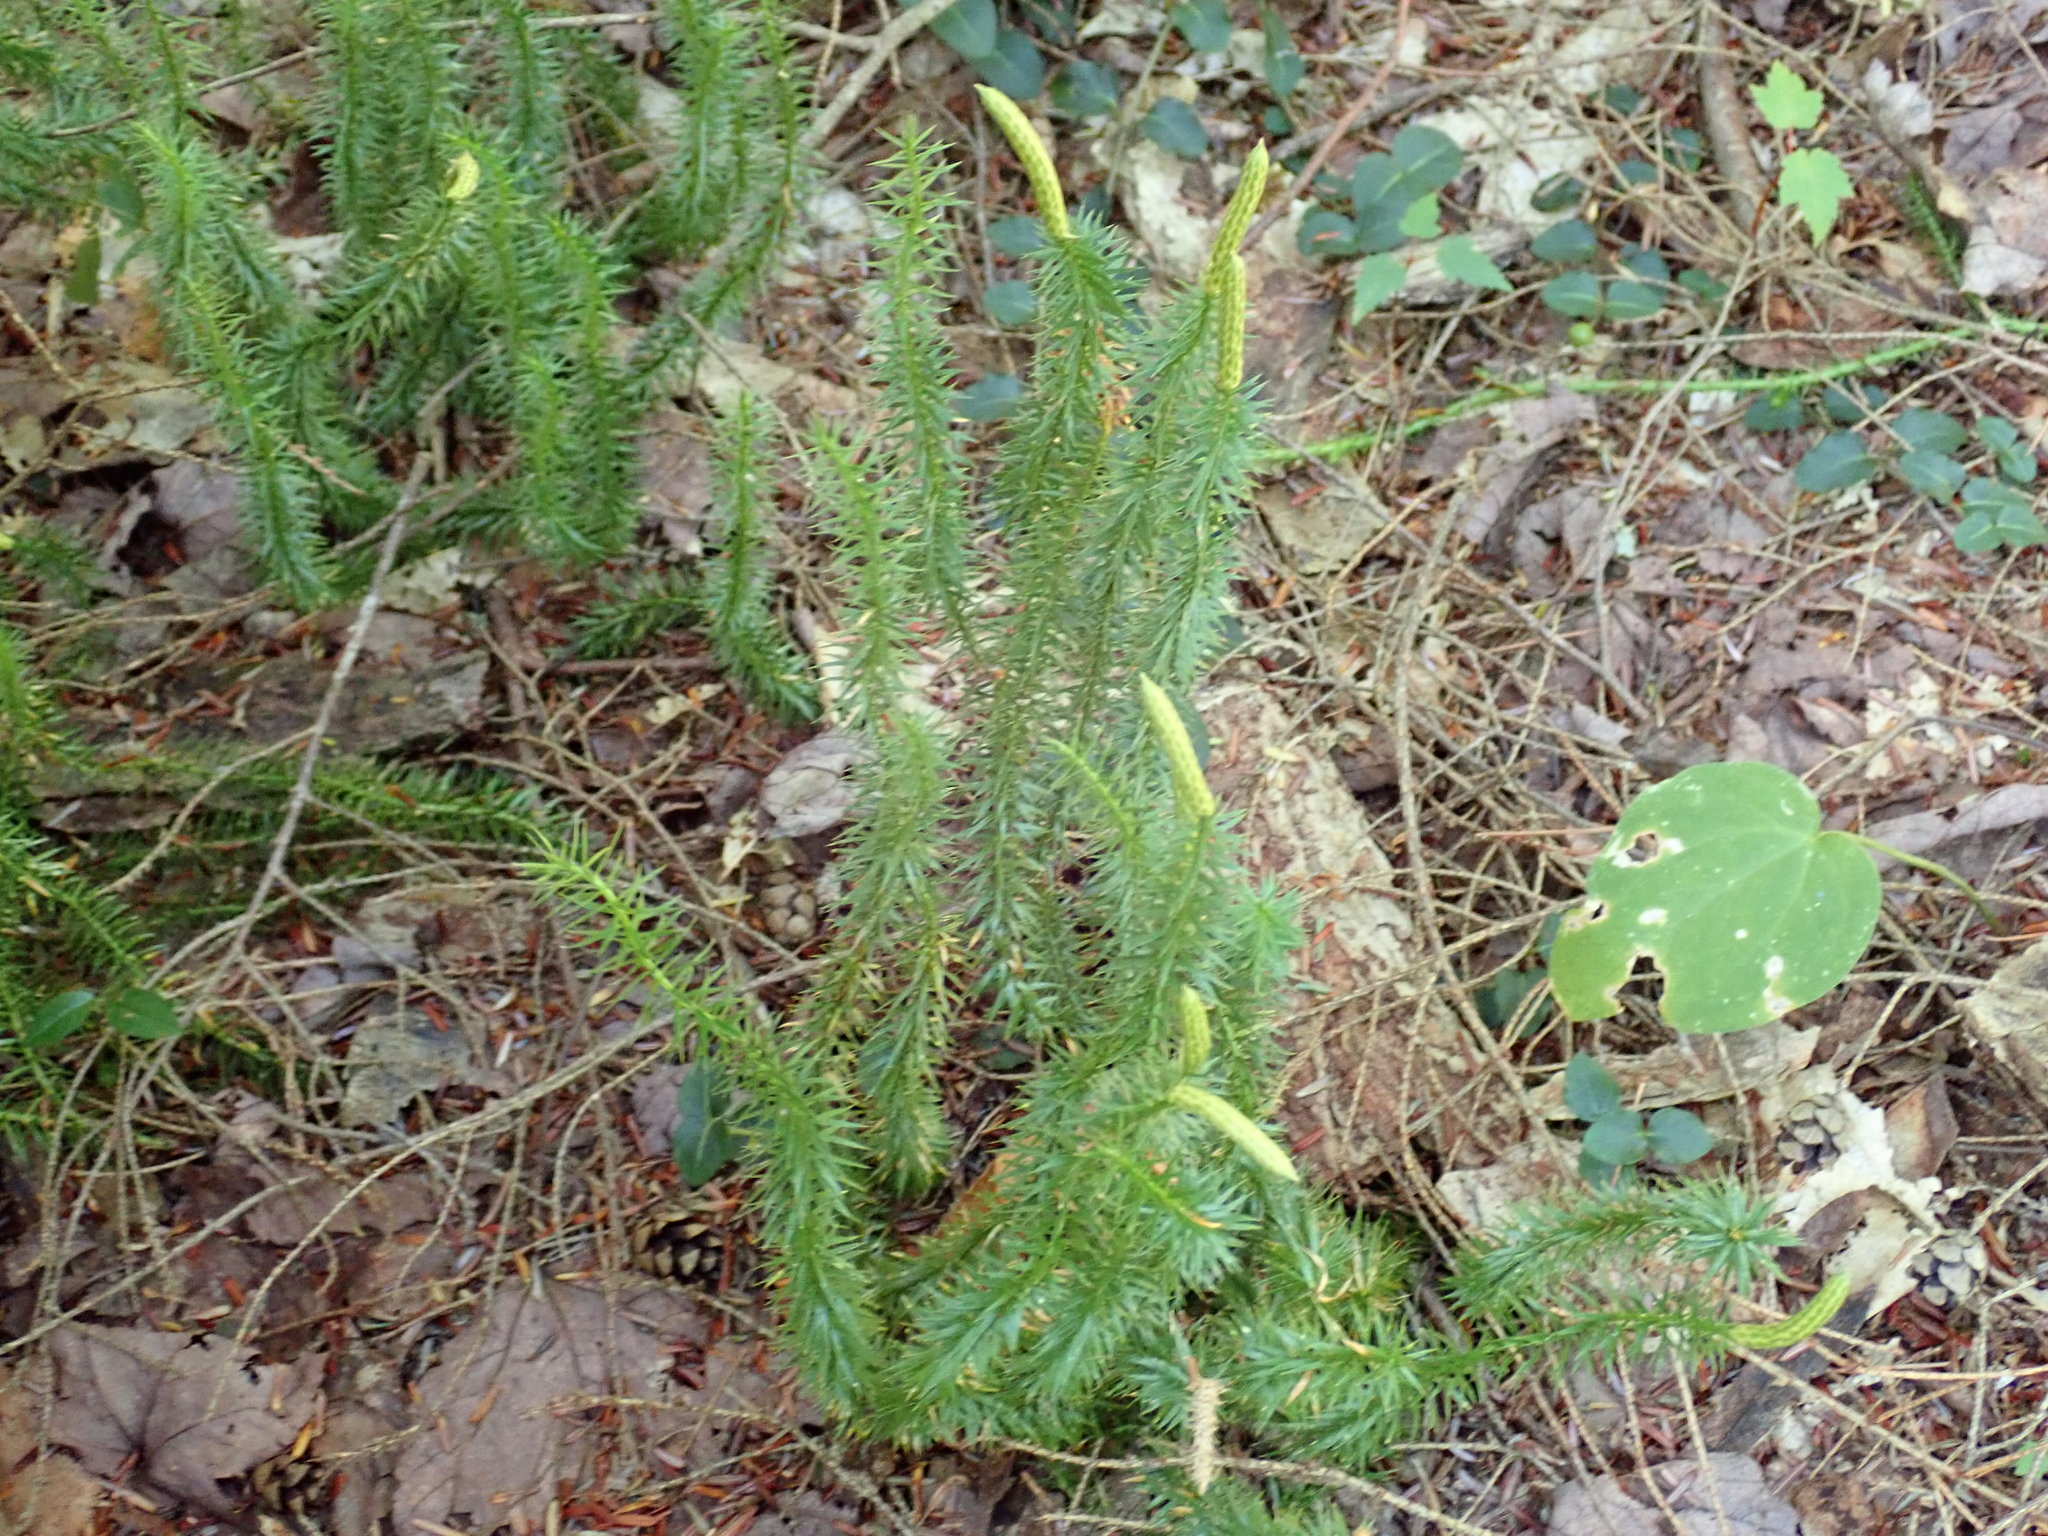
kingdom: Plantae
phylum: Tracheophyta
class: Lycopodiopsida
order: Lycopodiales
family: Lycopodiaceae
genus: Spinulum
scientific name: Spinulum annotinum
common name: Interrupted club-moss
